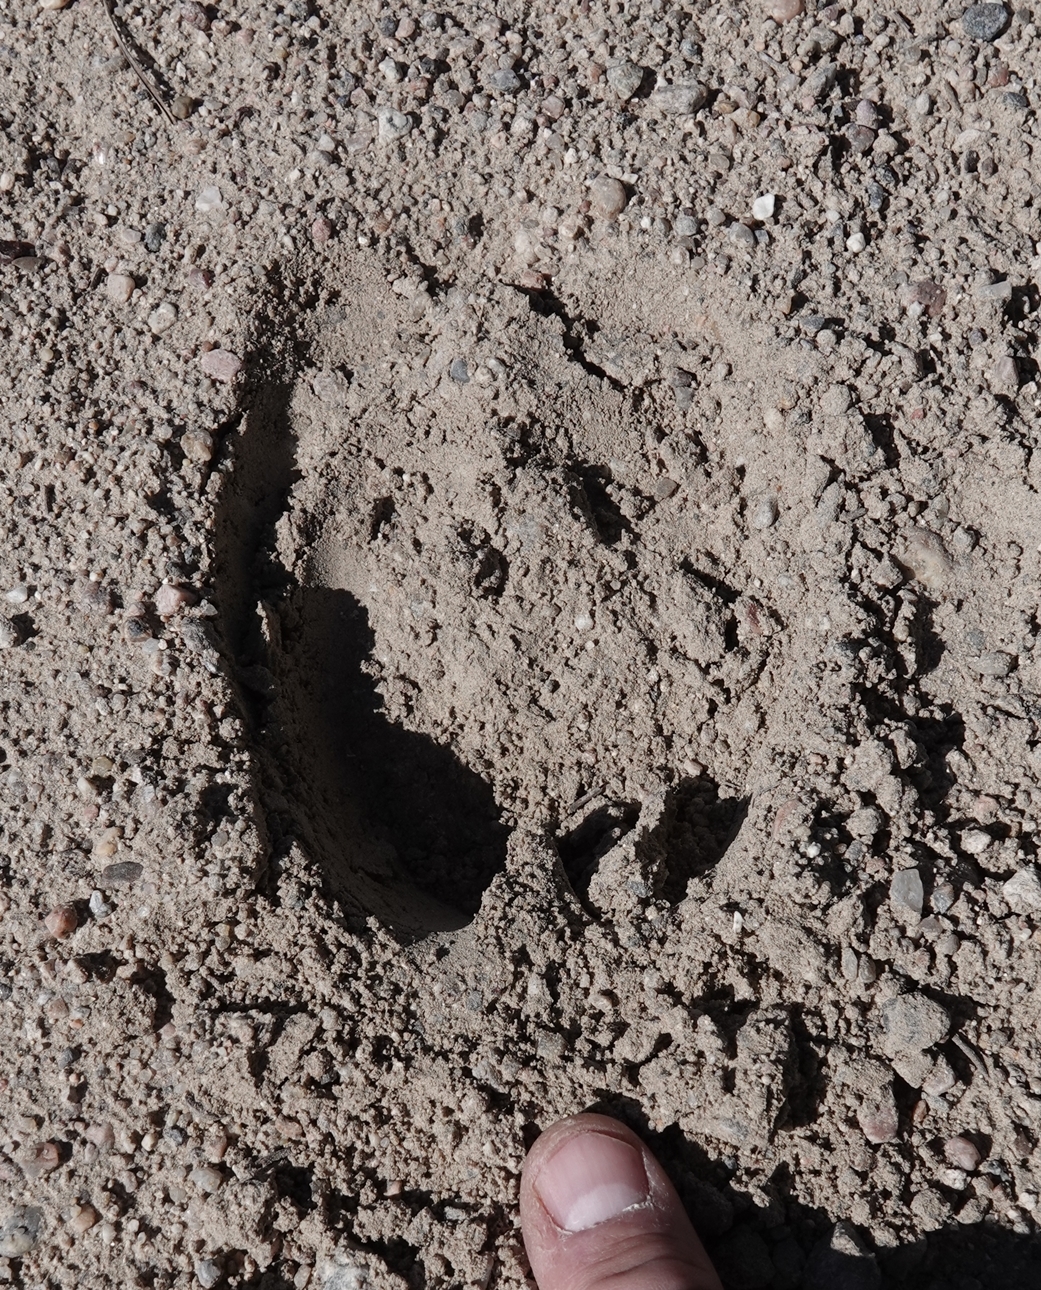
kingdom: Animalia
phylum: Chordata
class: Mammalia
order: Artiodactyla
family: Cervidae
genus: Alces
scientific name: Alces alces
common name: Moose
